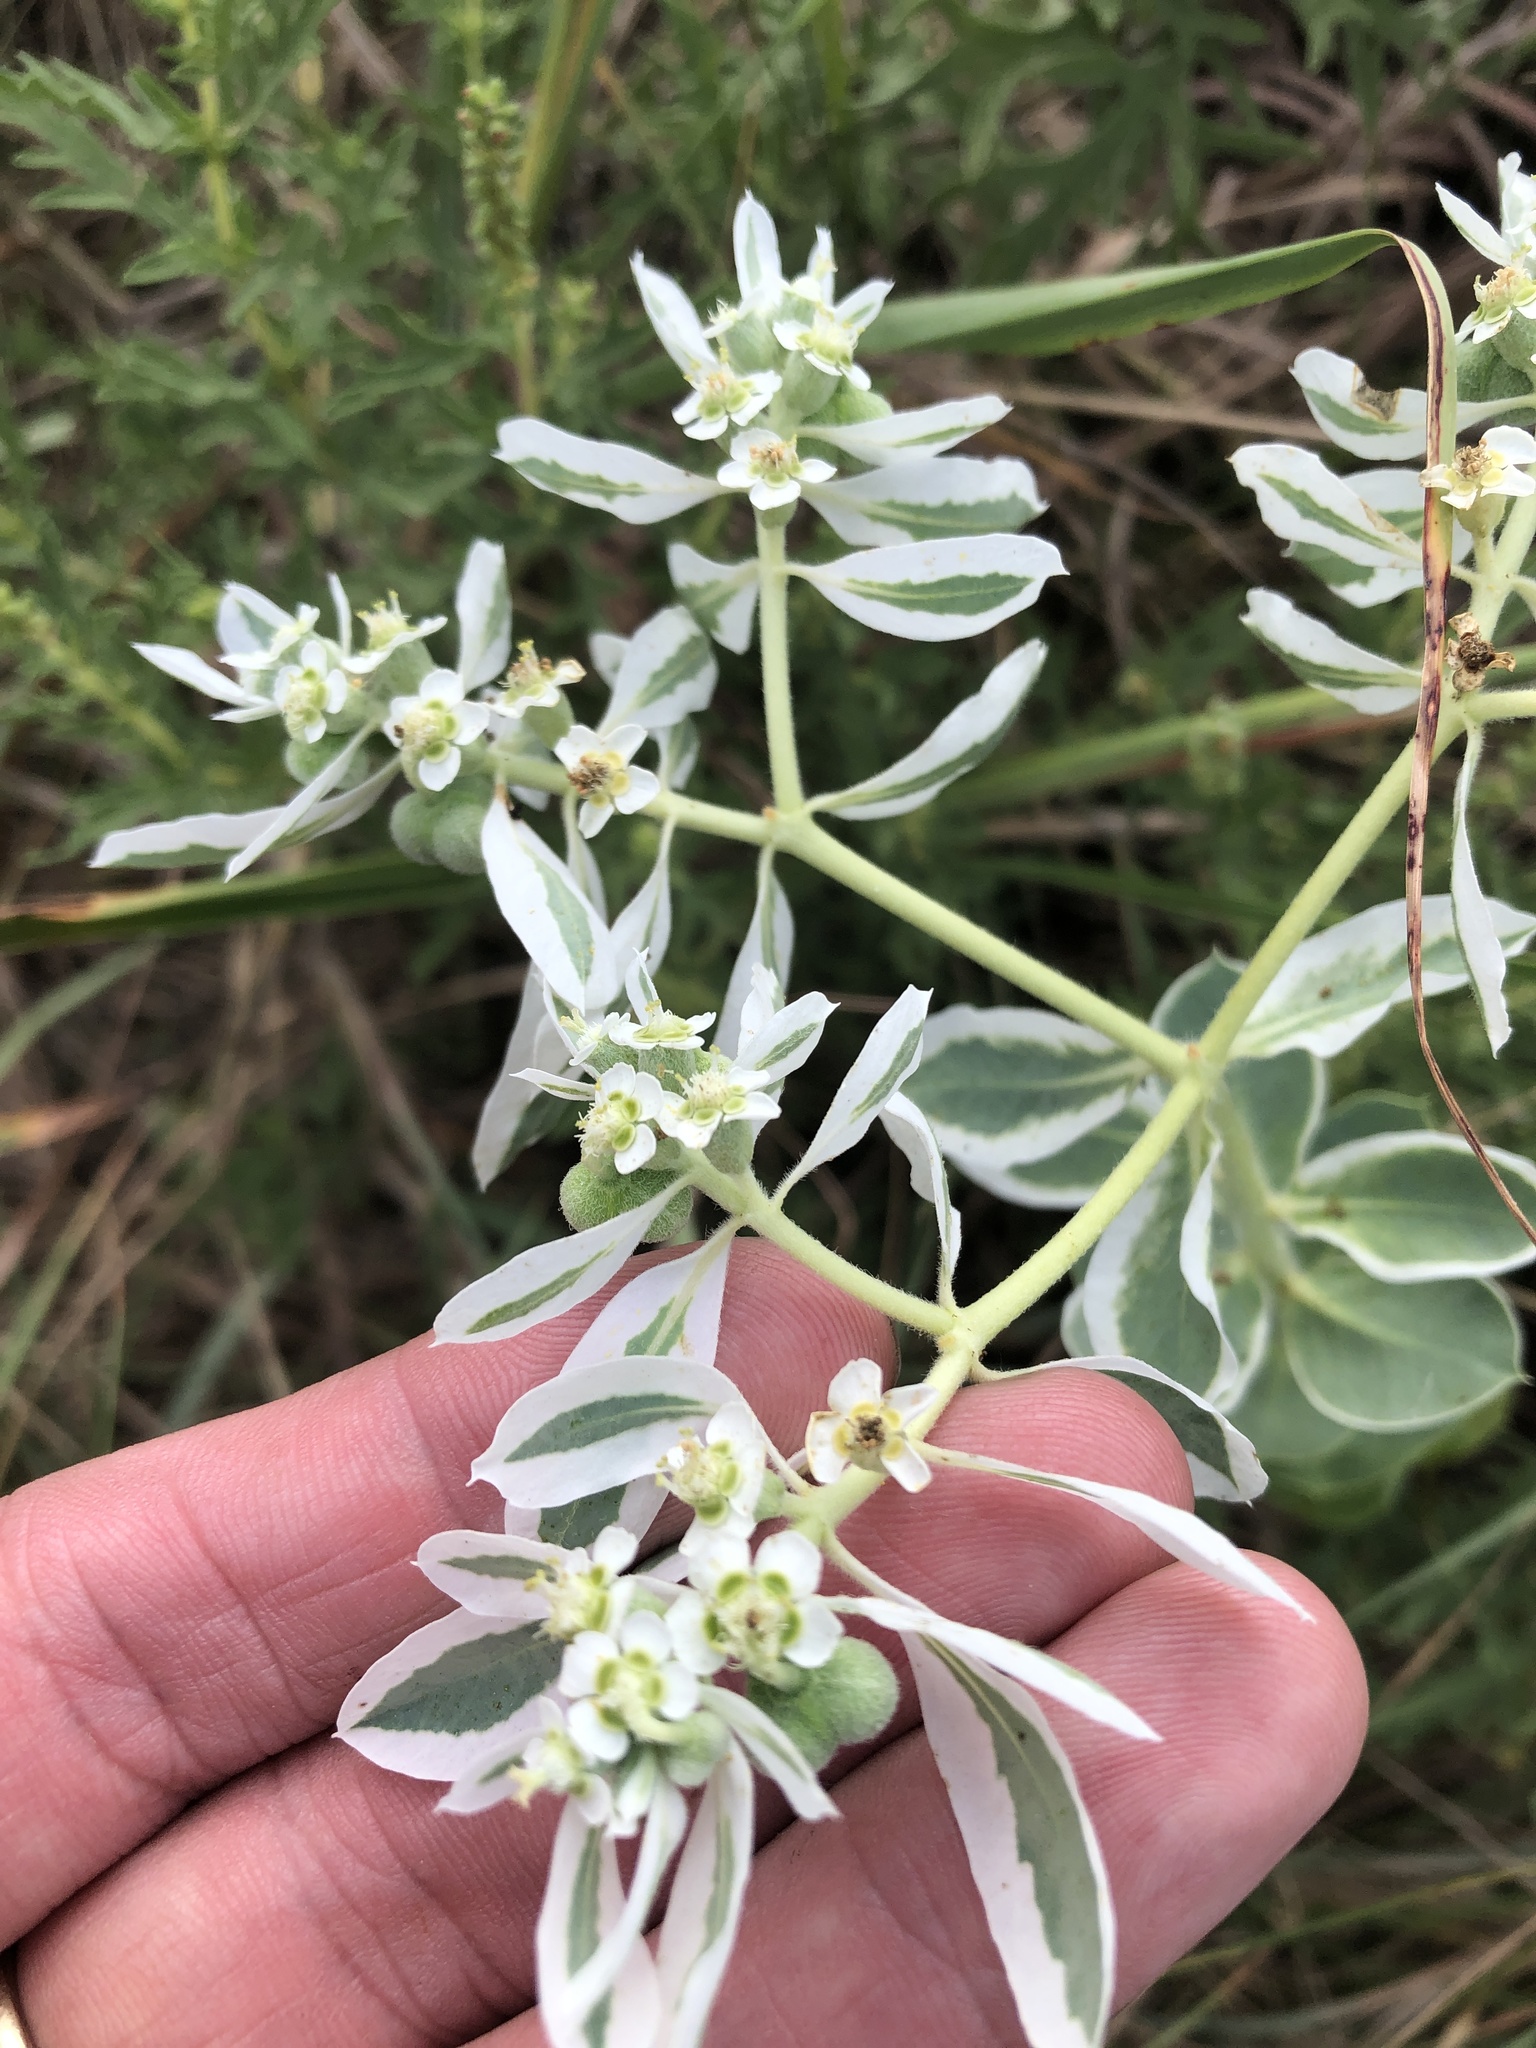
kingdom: Plantae
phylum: Tracheophyta
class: Magnoliopsida
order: Malpighiales
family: Euphorbiaceae
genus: Euphorbia
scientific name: Euphorbia marginata
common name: Ghostweed
